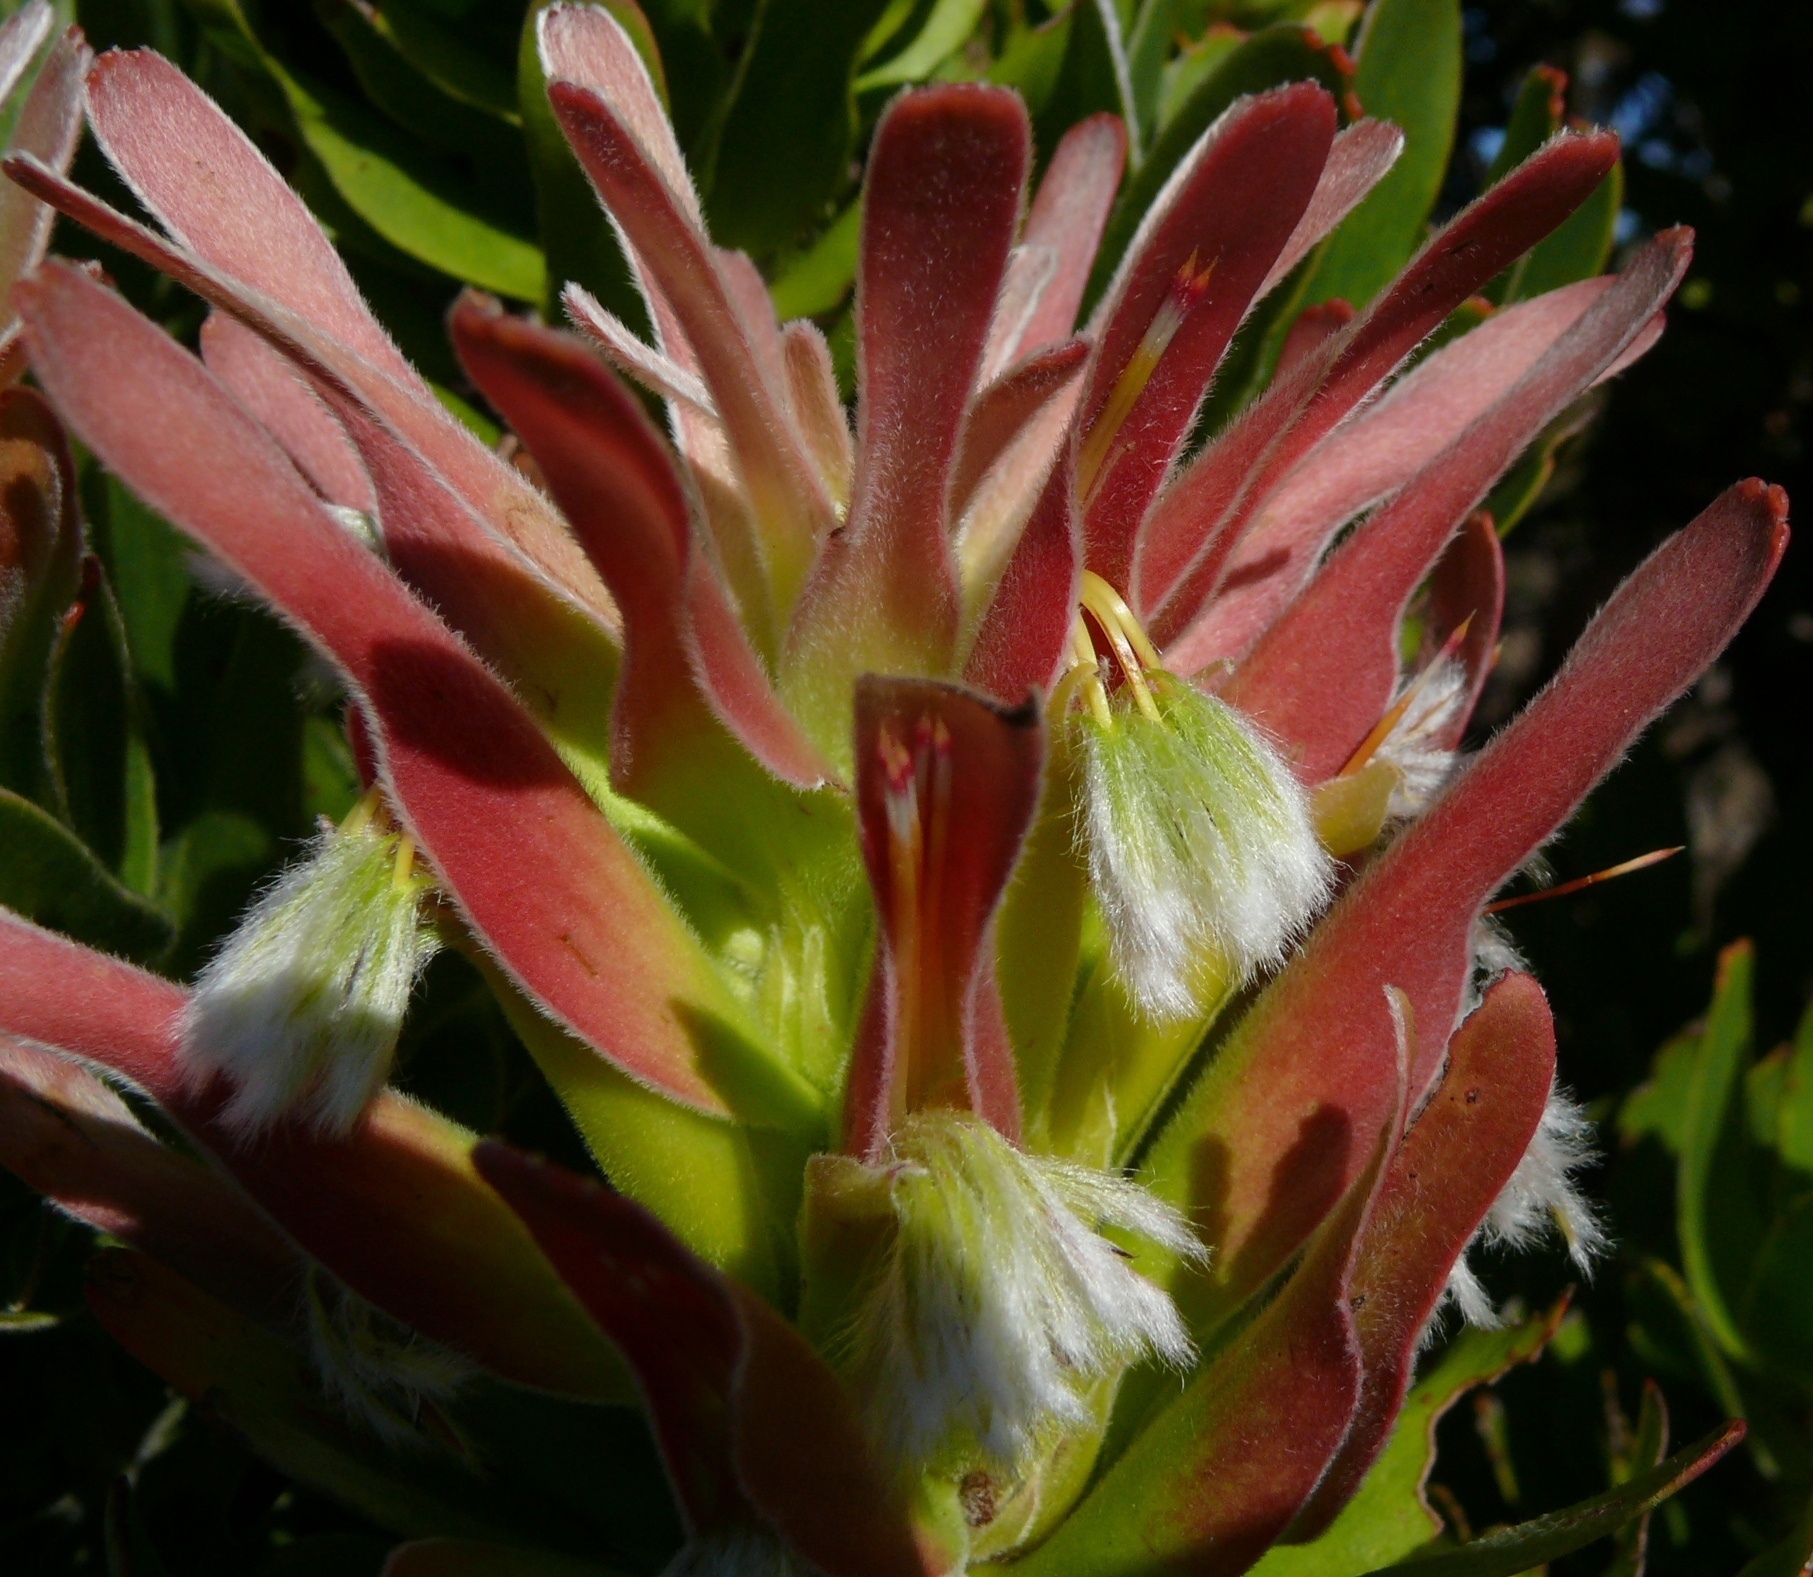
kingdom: Plantae
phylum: Tracheophyta
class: Magnoliopsida
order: Proteales
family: Proteaceae
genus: Mimetes
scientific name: Mimetes fimbriifolius
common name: Fringed bottlebrush
